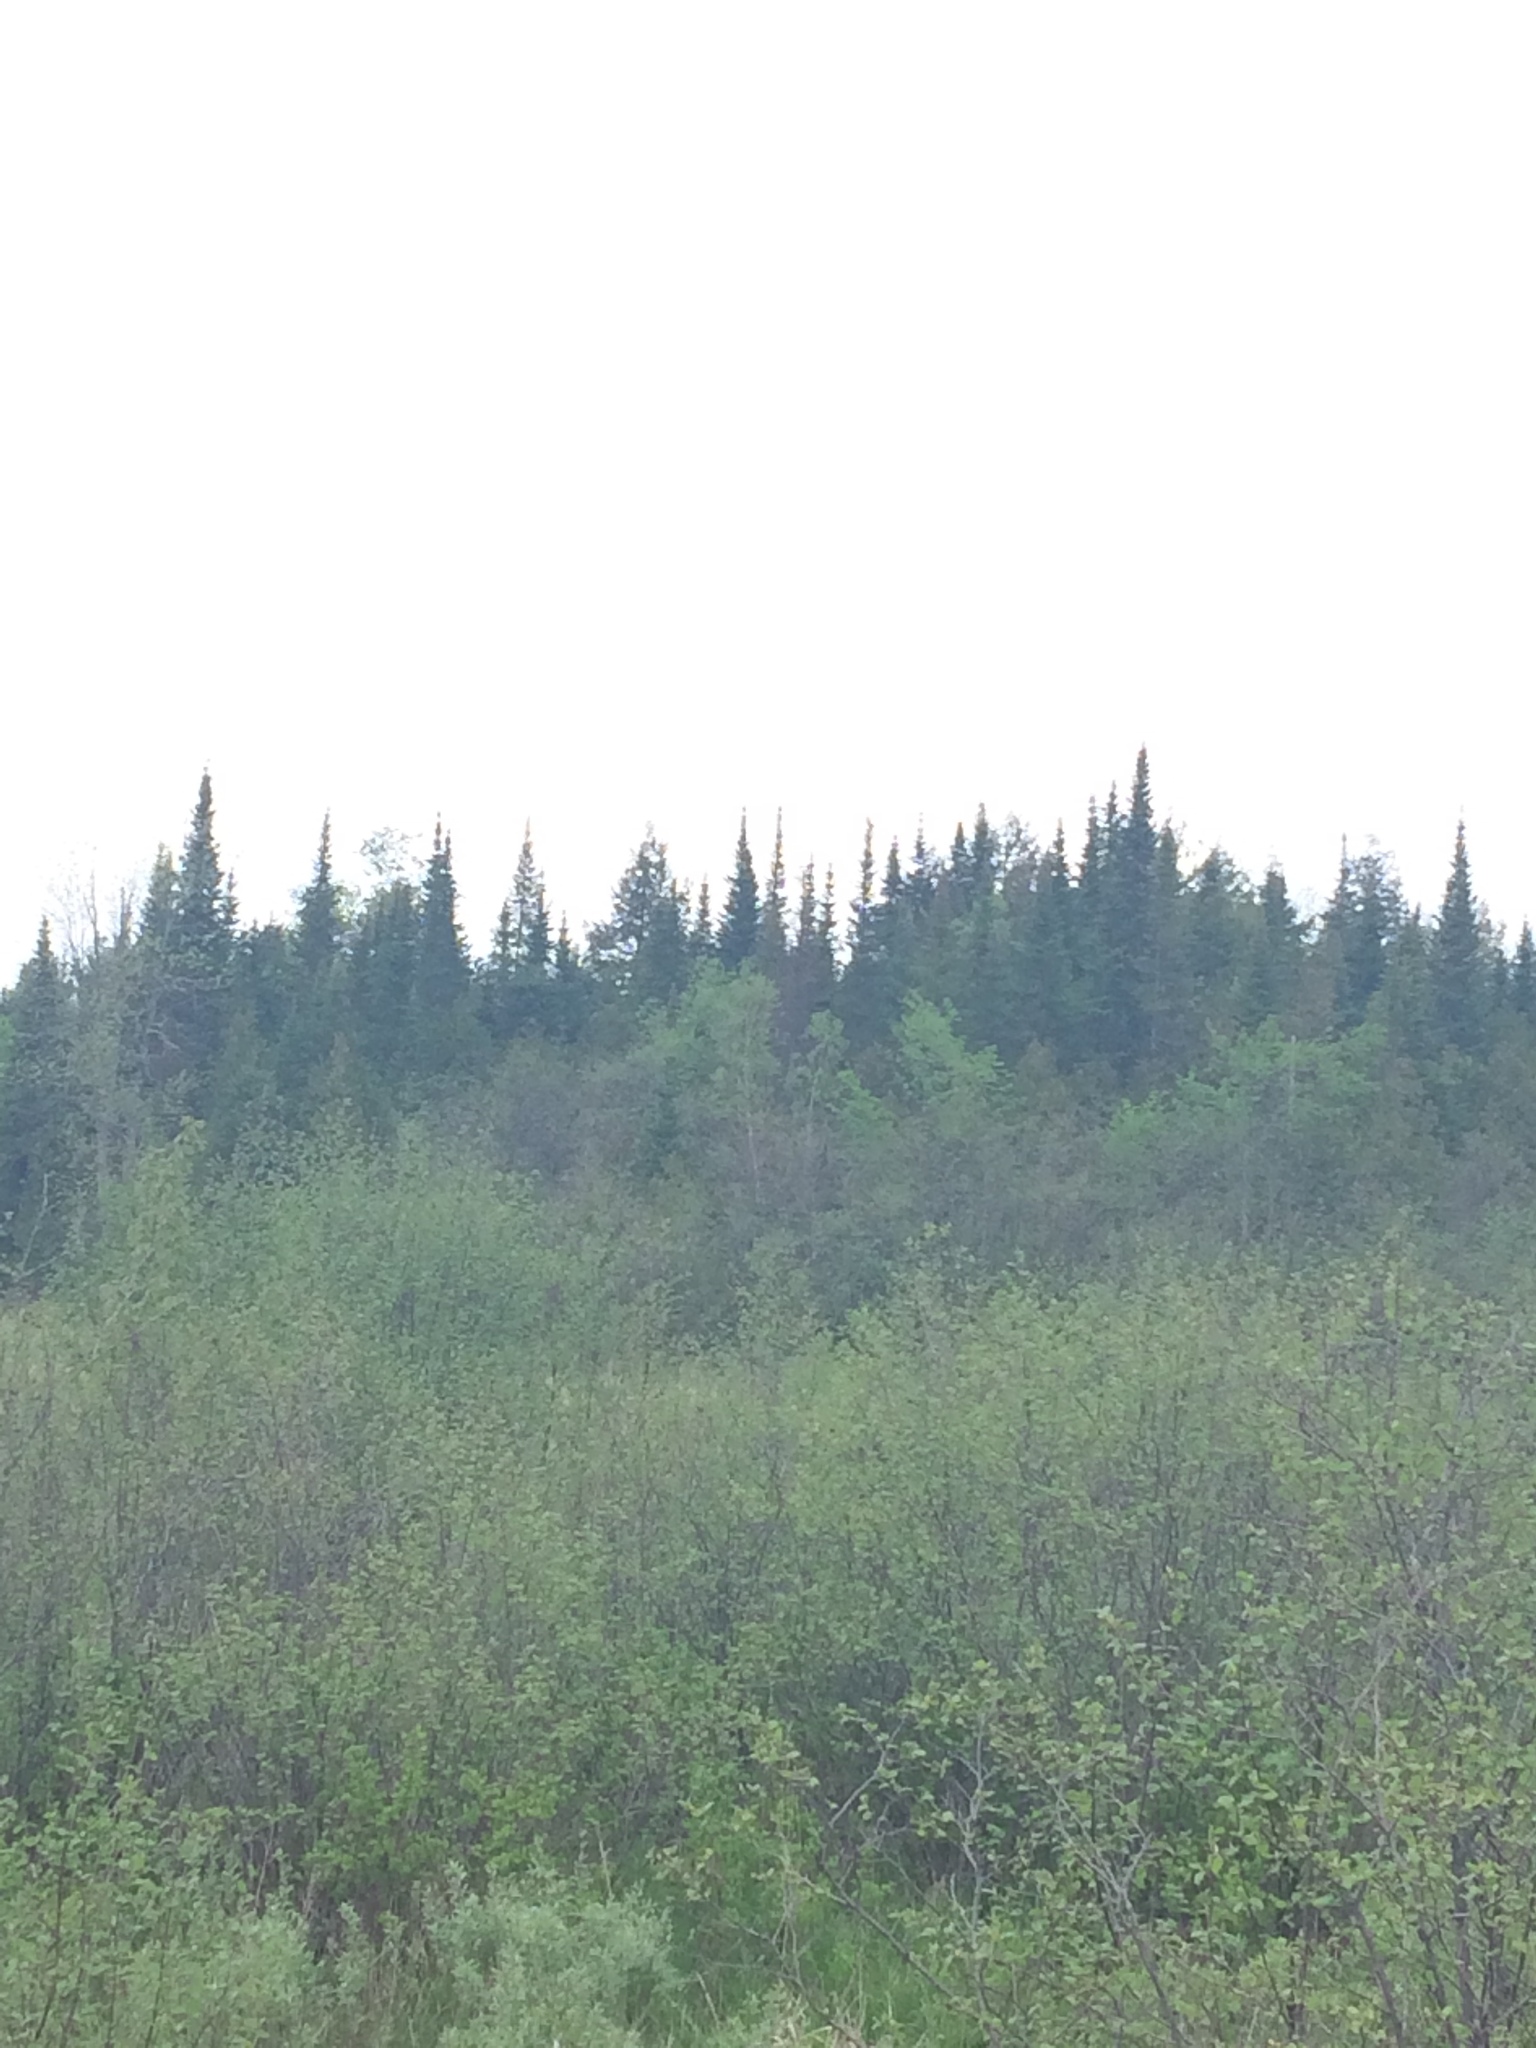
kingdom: Plantae
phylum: Tracheophyta
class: Pinopsida
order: Pinales
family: Pinaceae
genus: Abies
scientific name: Abies balsamea
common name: Balsam fir
